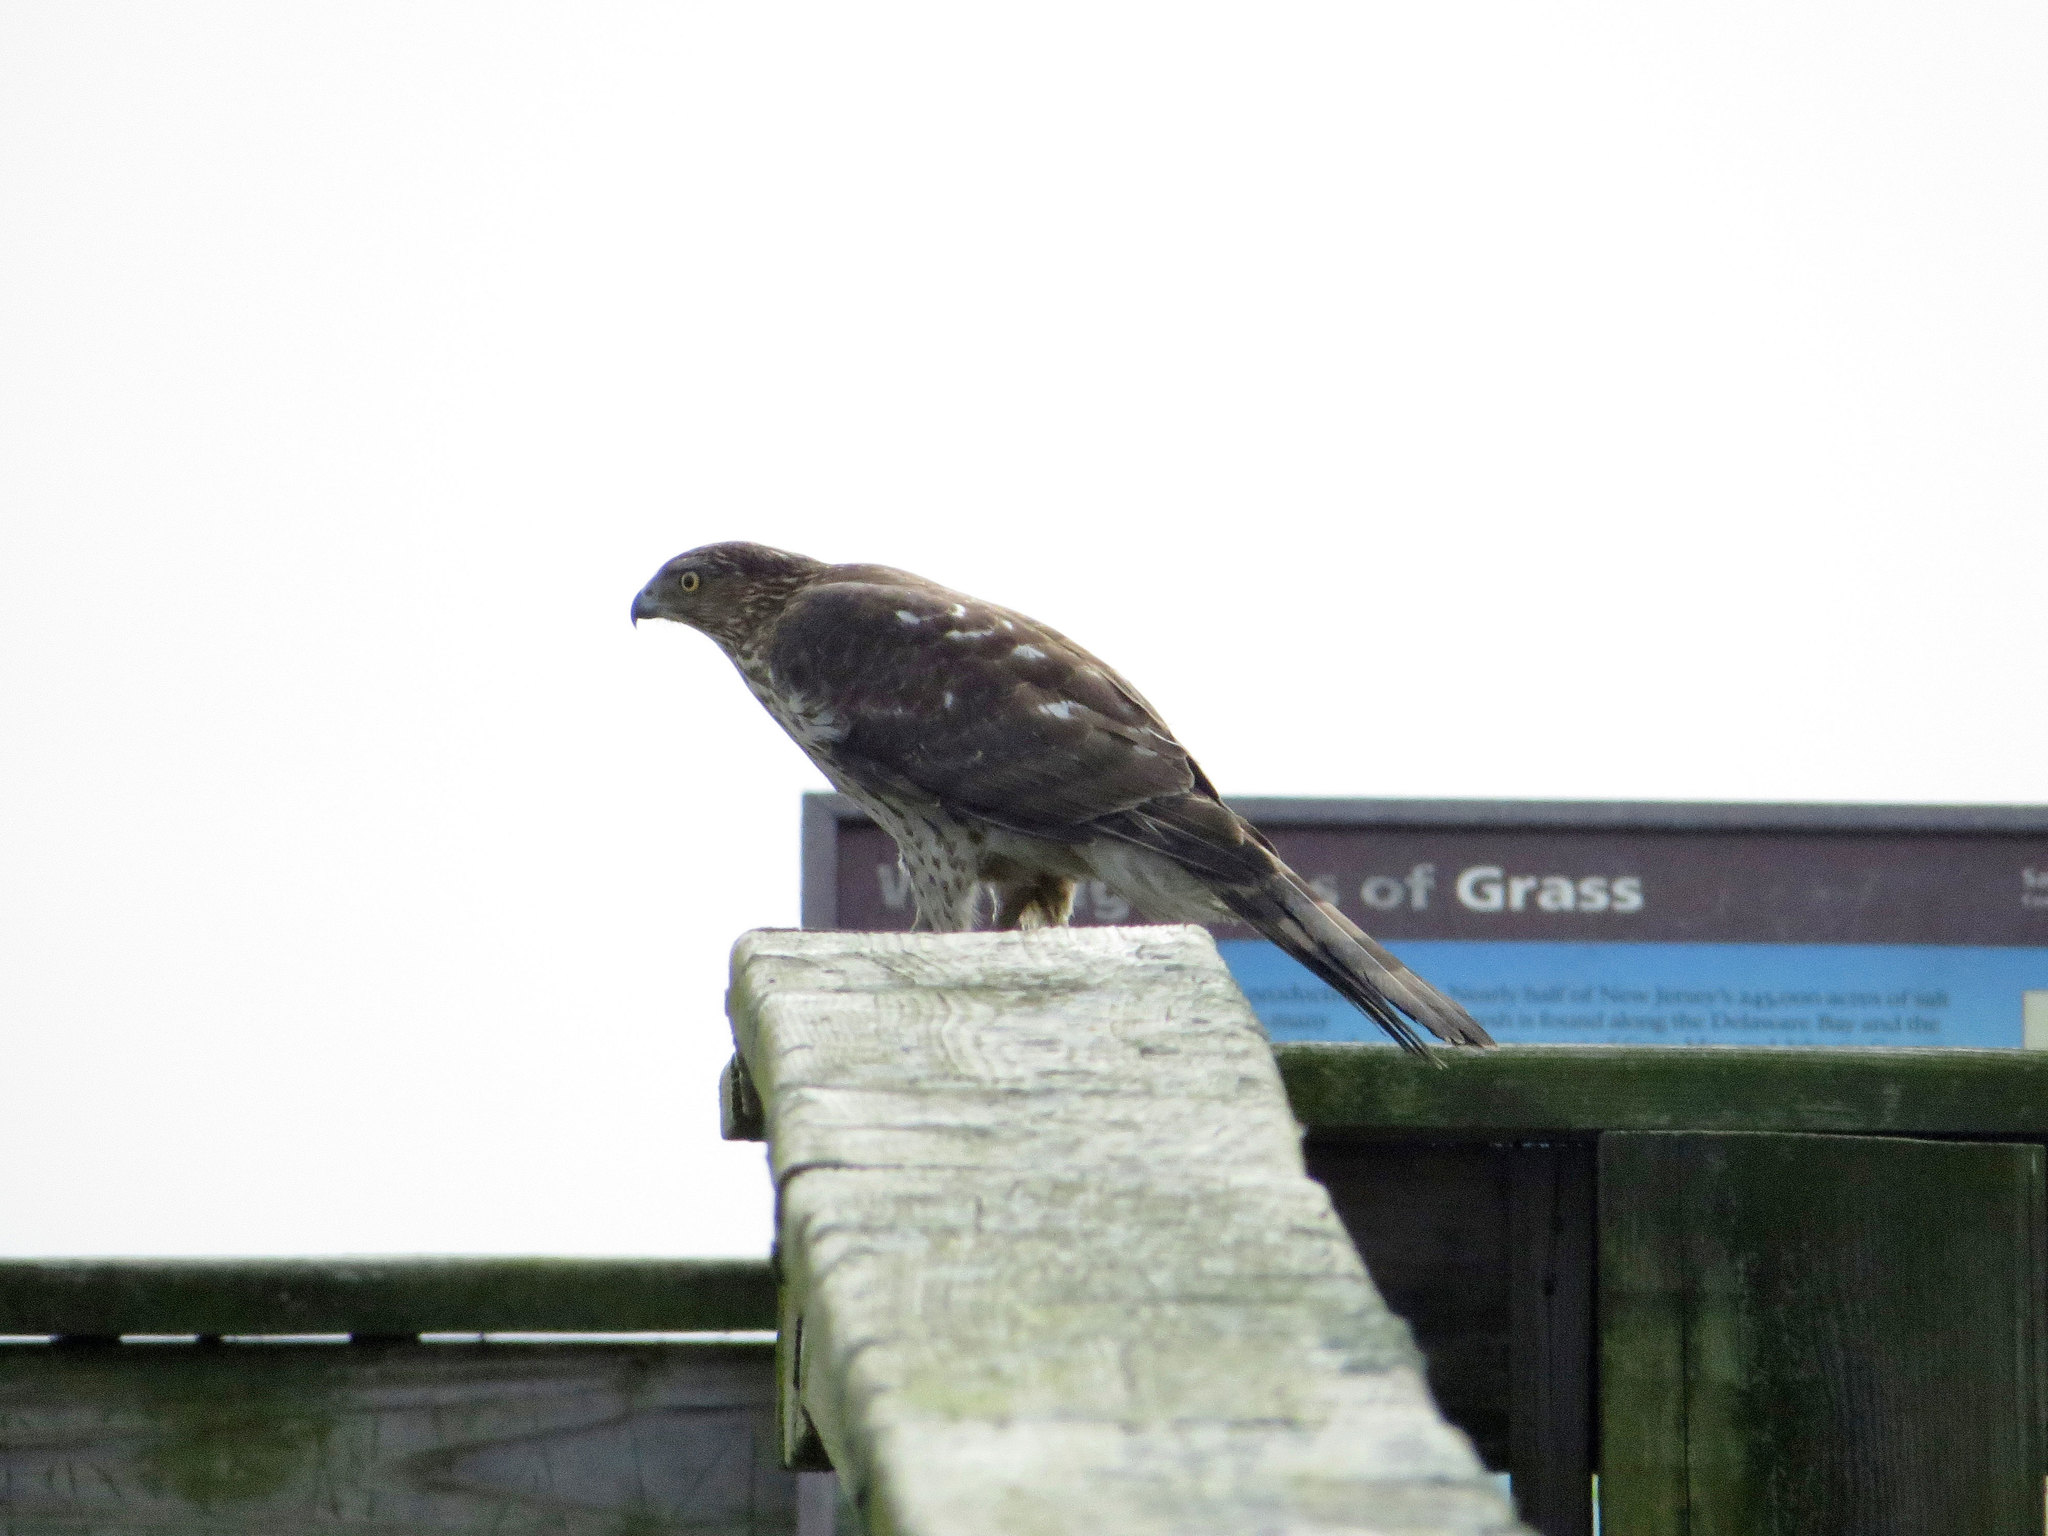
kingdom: Animalia
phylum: Chordata
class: Aves
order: Accipitriformes
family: Accipitridae
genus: Accipiter
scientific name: Accipiter cooperii
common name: Cooper's hawk
